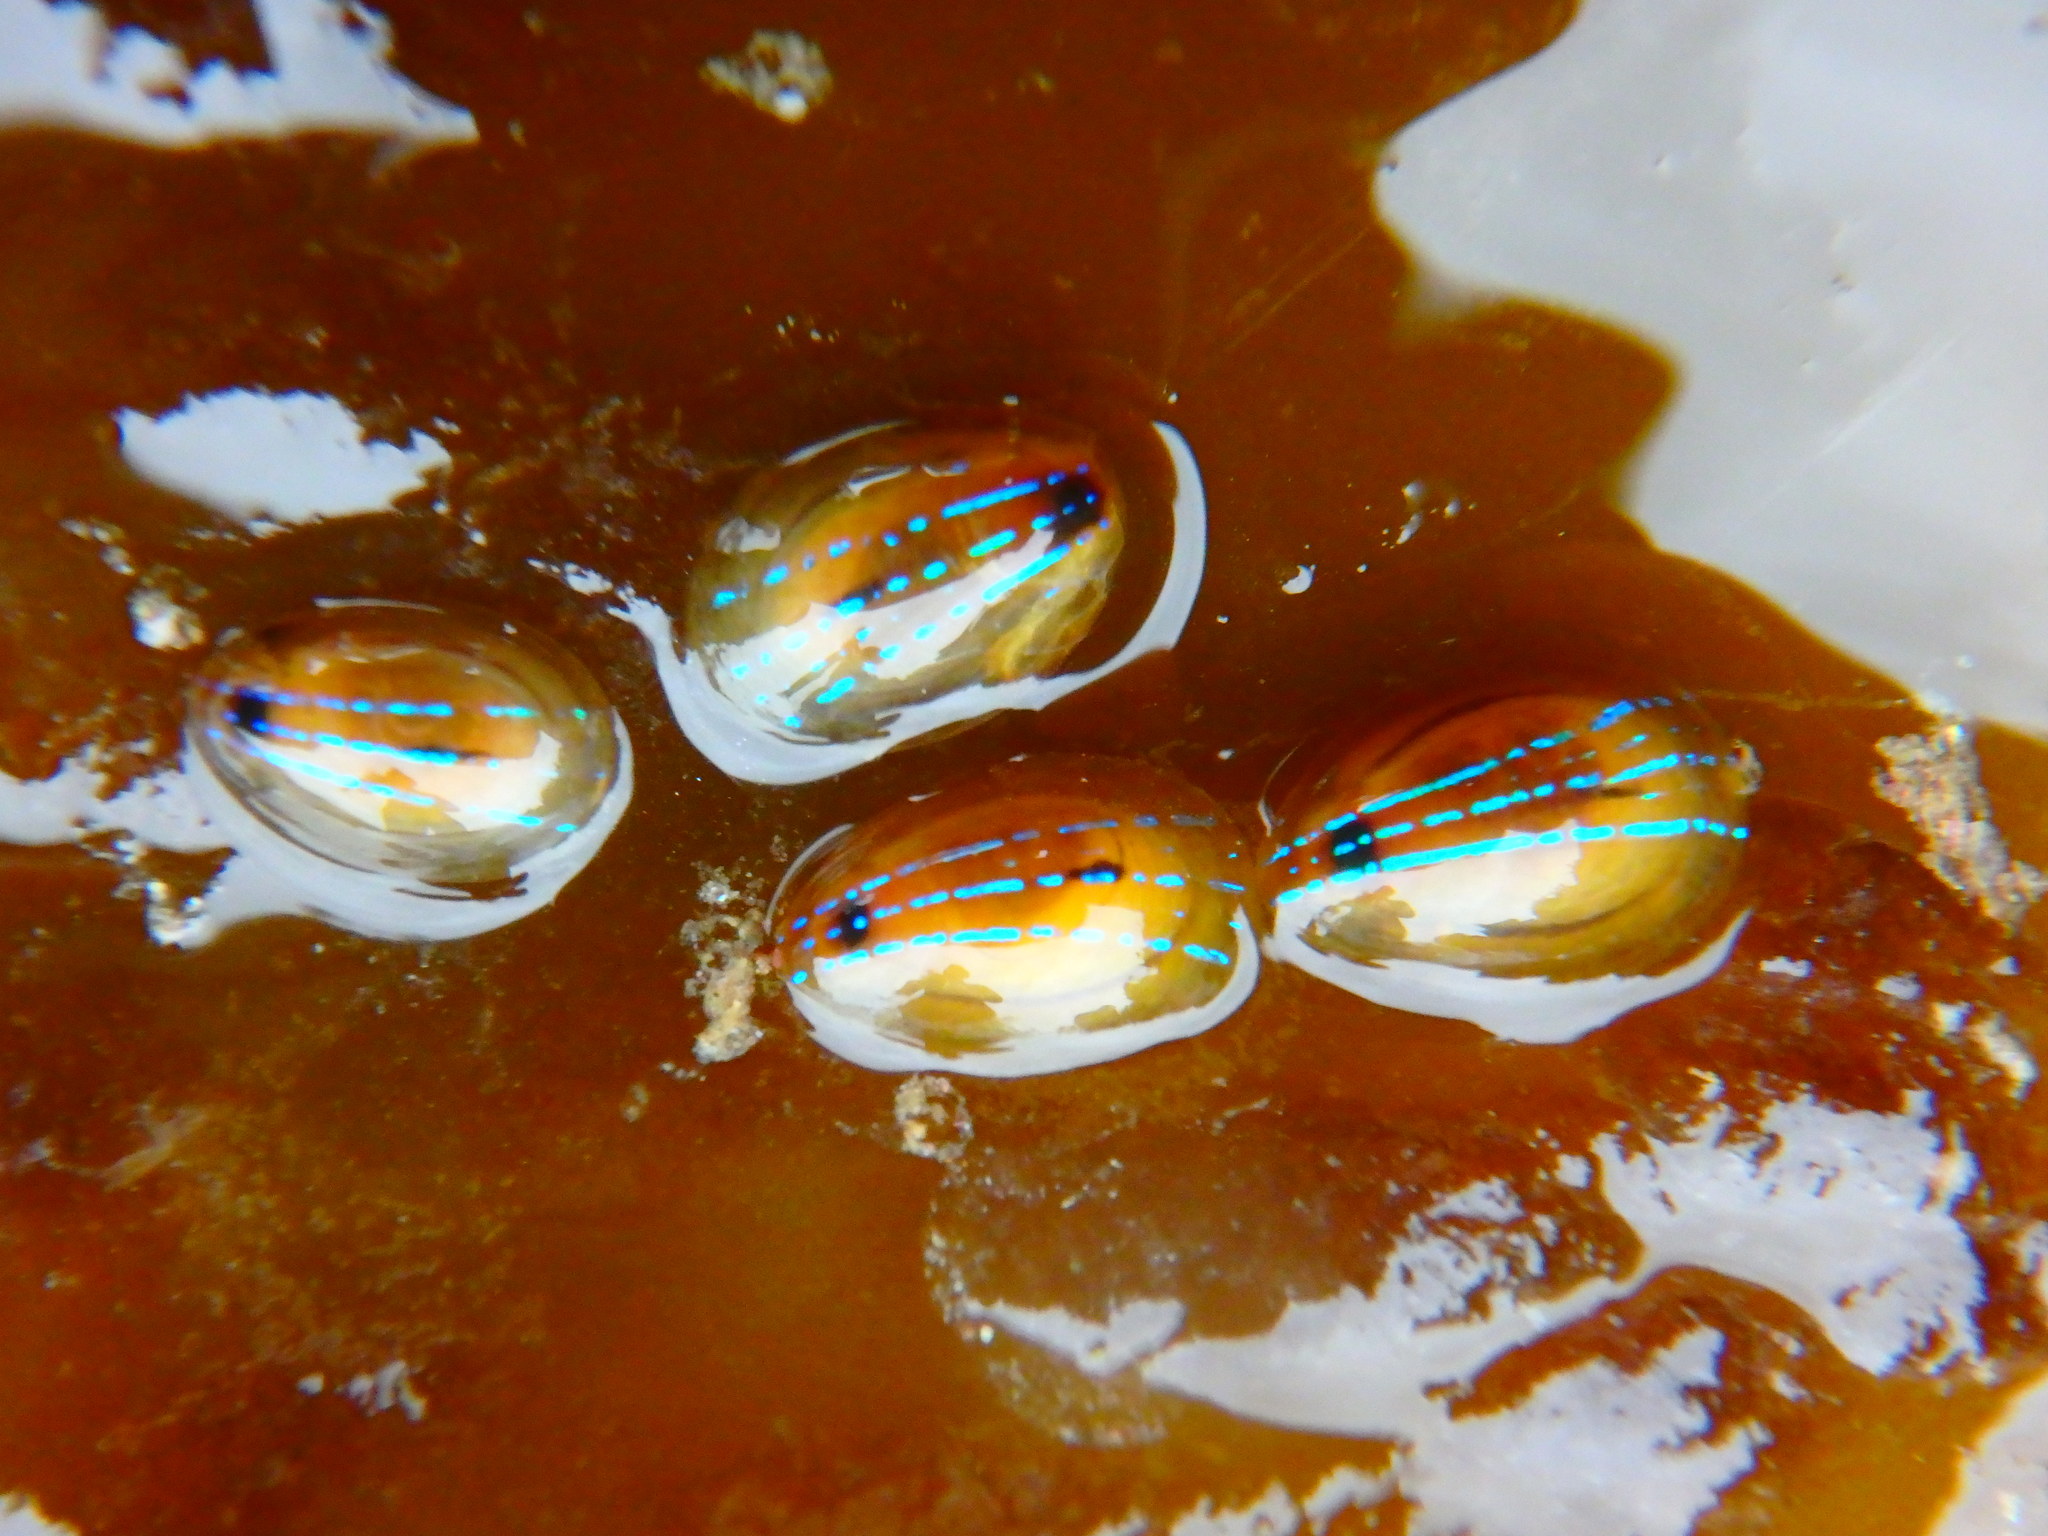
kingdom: Animalia
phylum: Mollusca
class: Gastropoda
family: Patellidae
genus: Patella
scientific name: Patella pellucida
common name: Blue-rayed limpet
